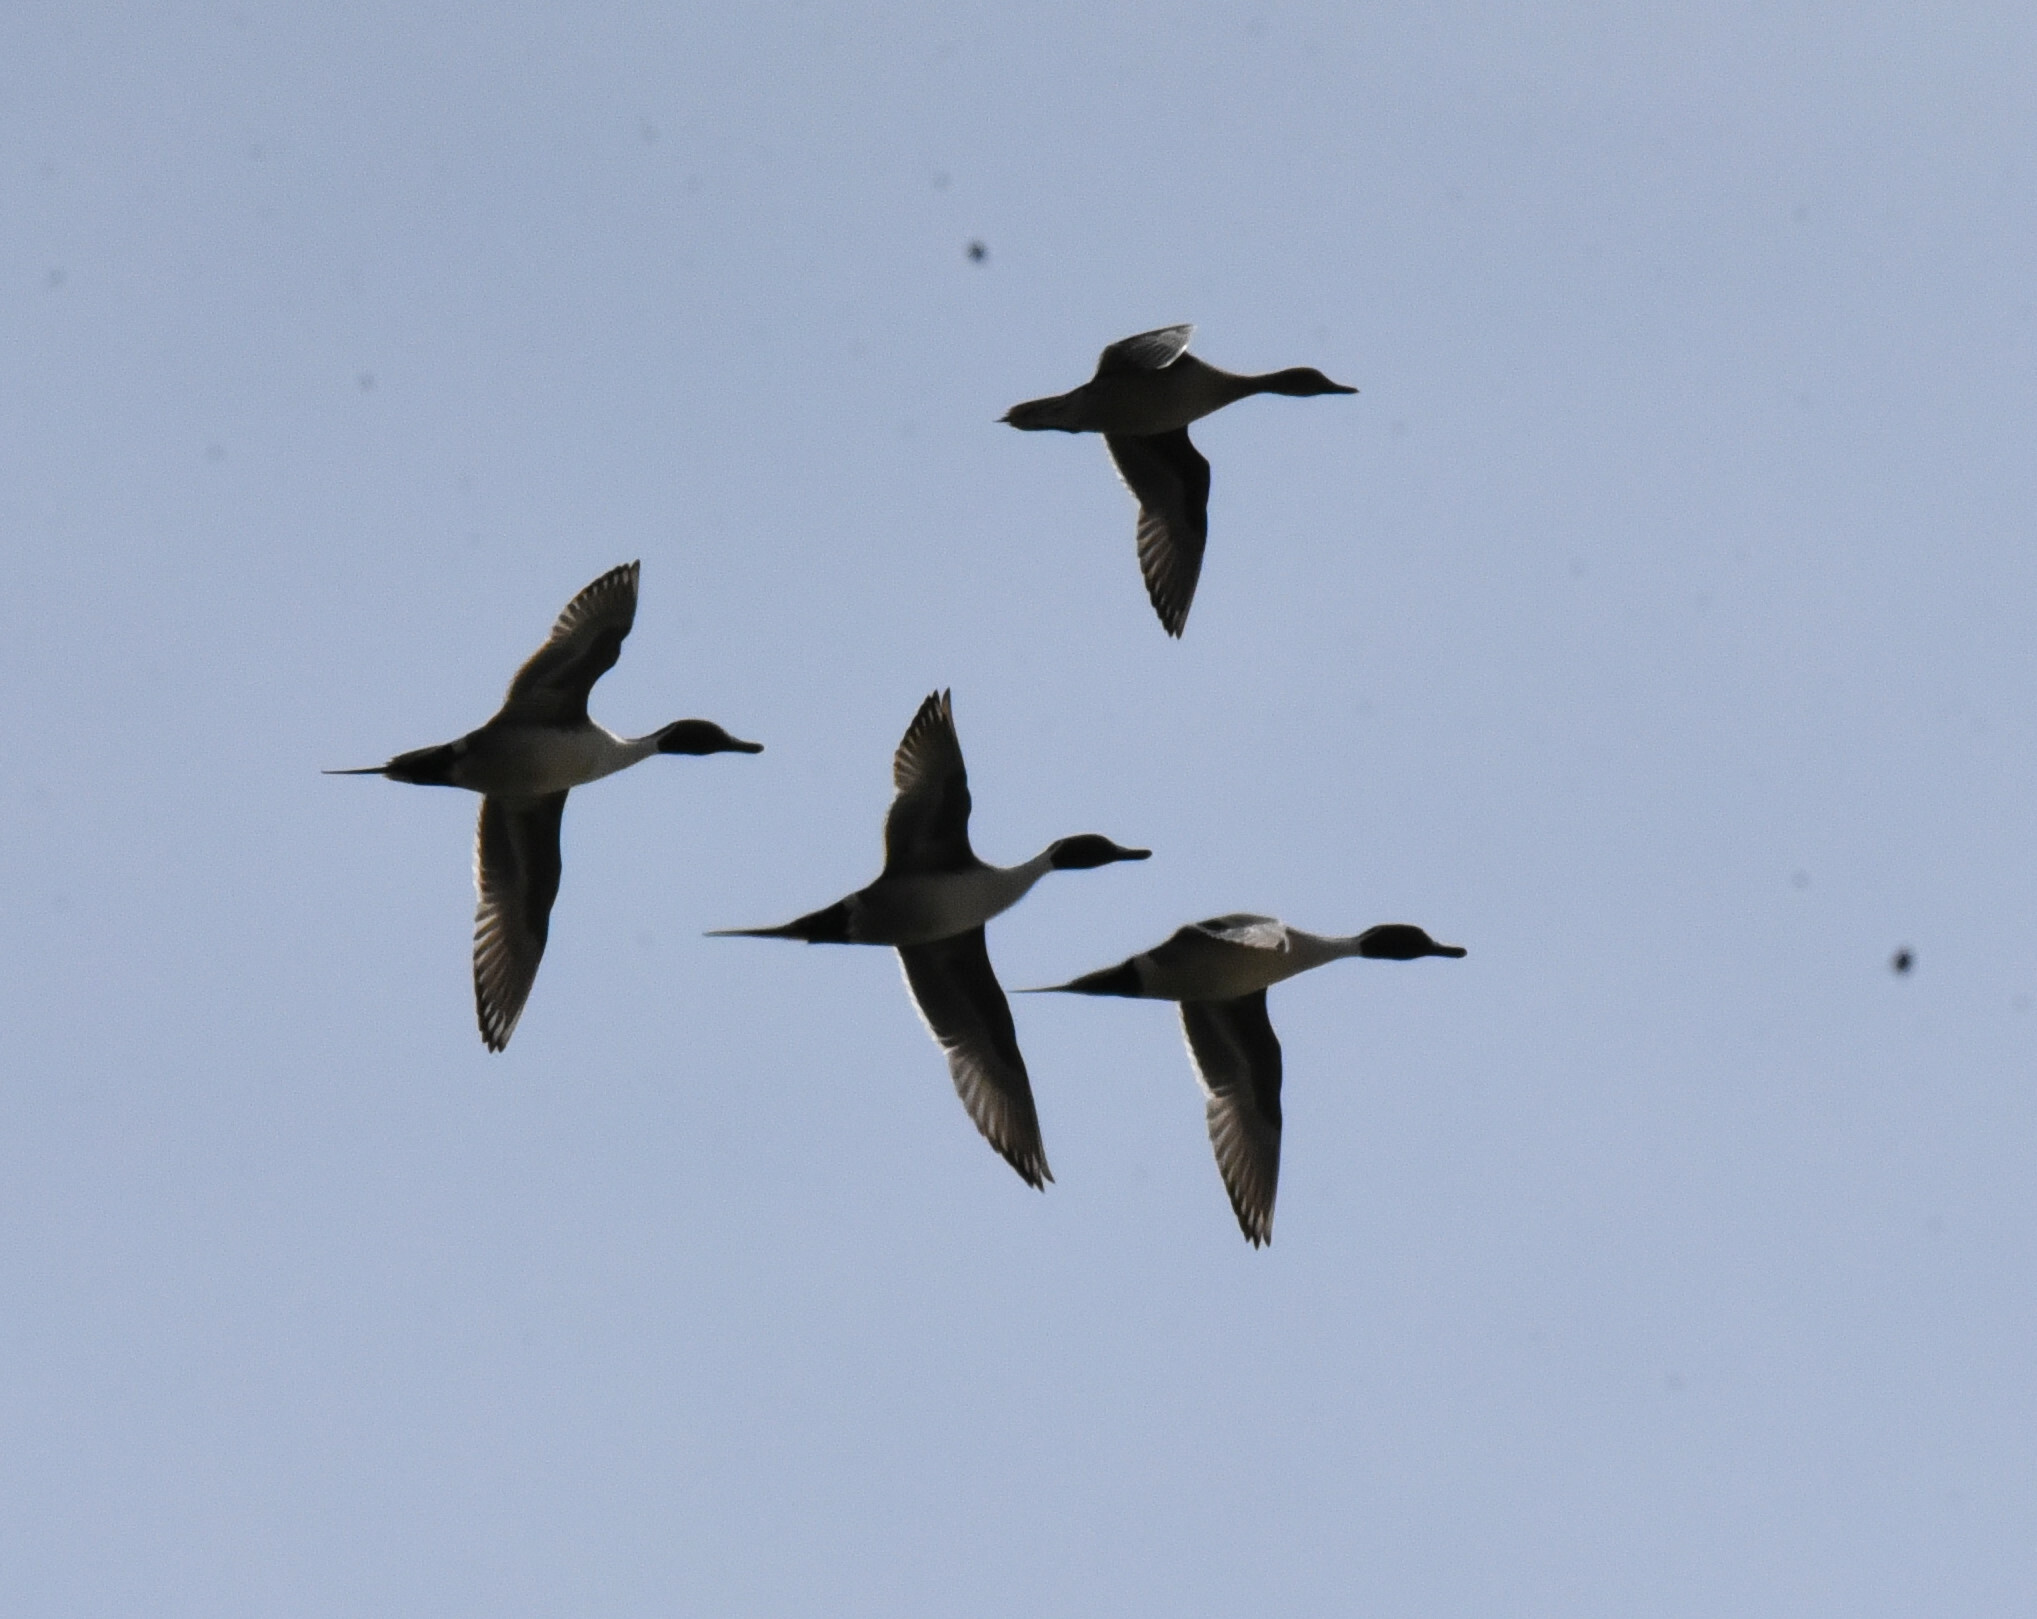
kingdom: Animalia
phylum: Chordata
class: Aves
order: Anseriformes
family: Anatidae
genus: Anas
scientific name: Anas acuta
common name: Northern pintail
